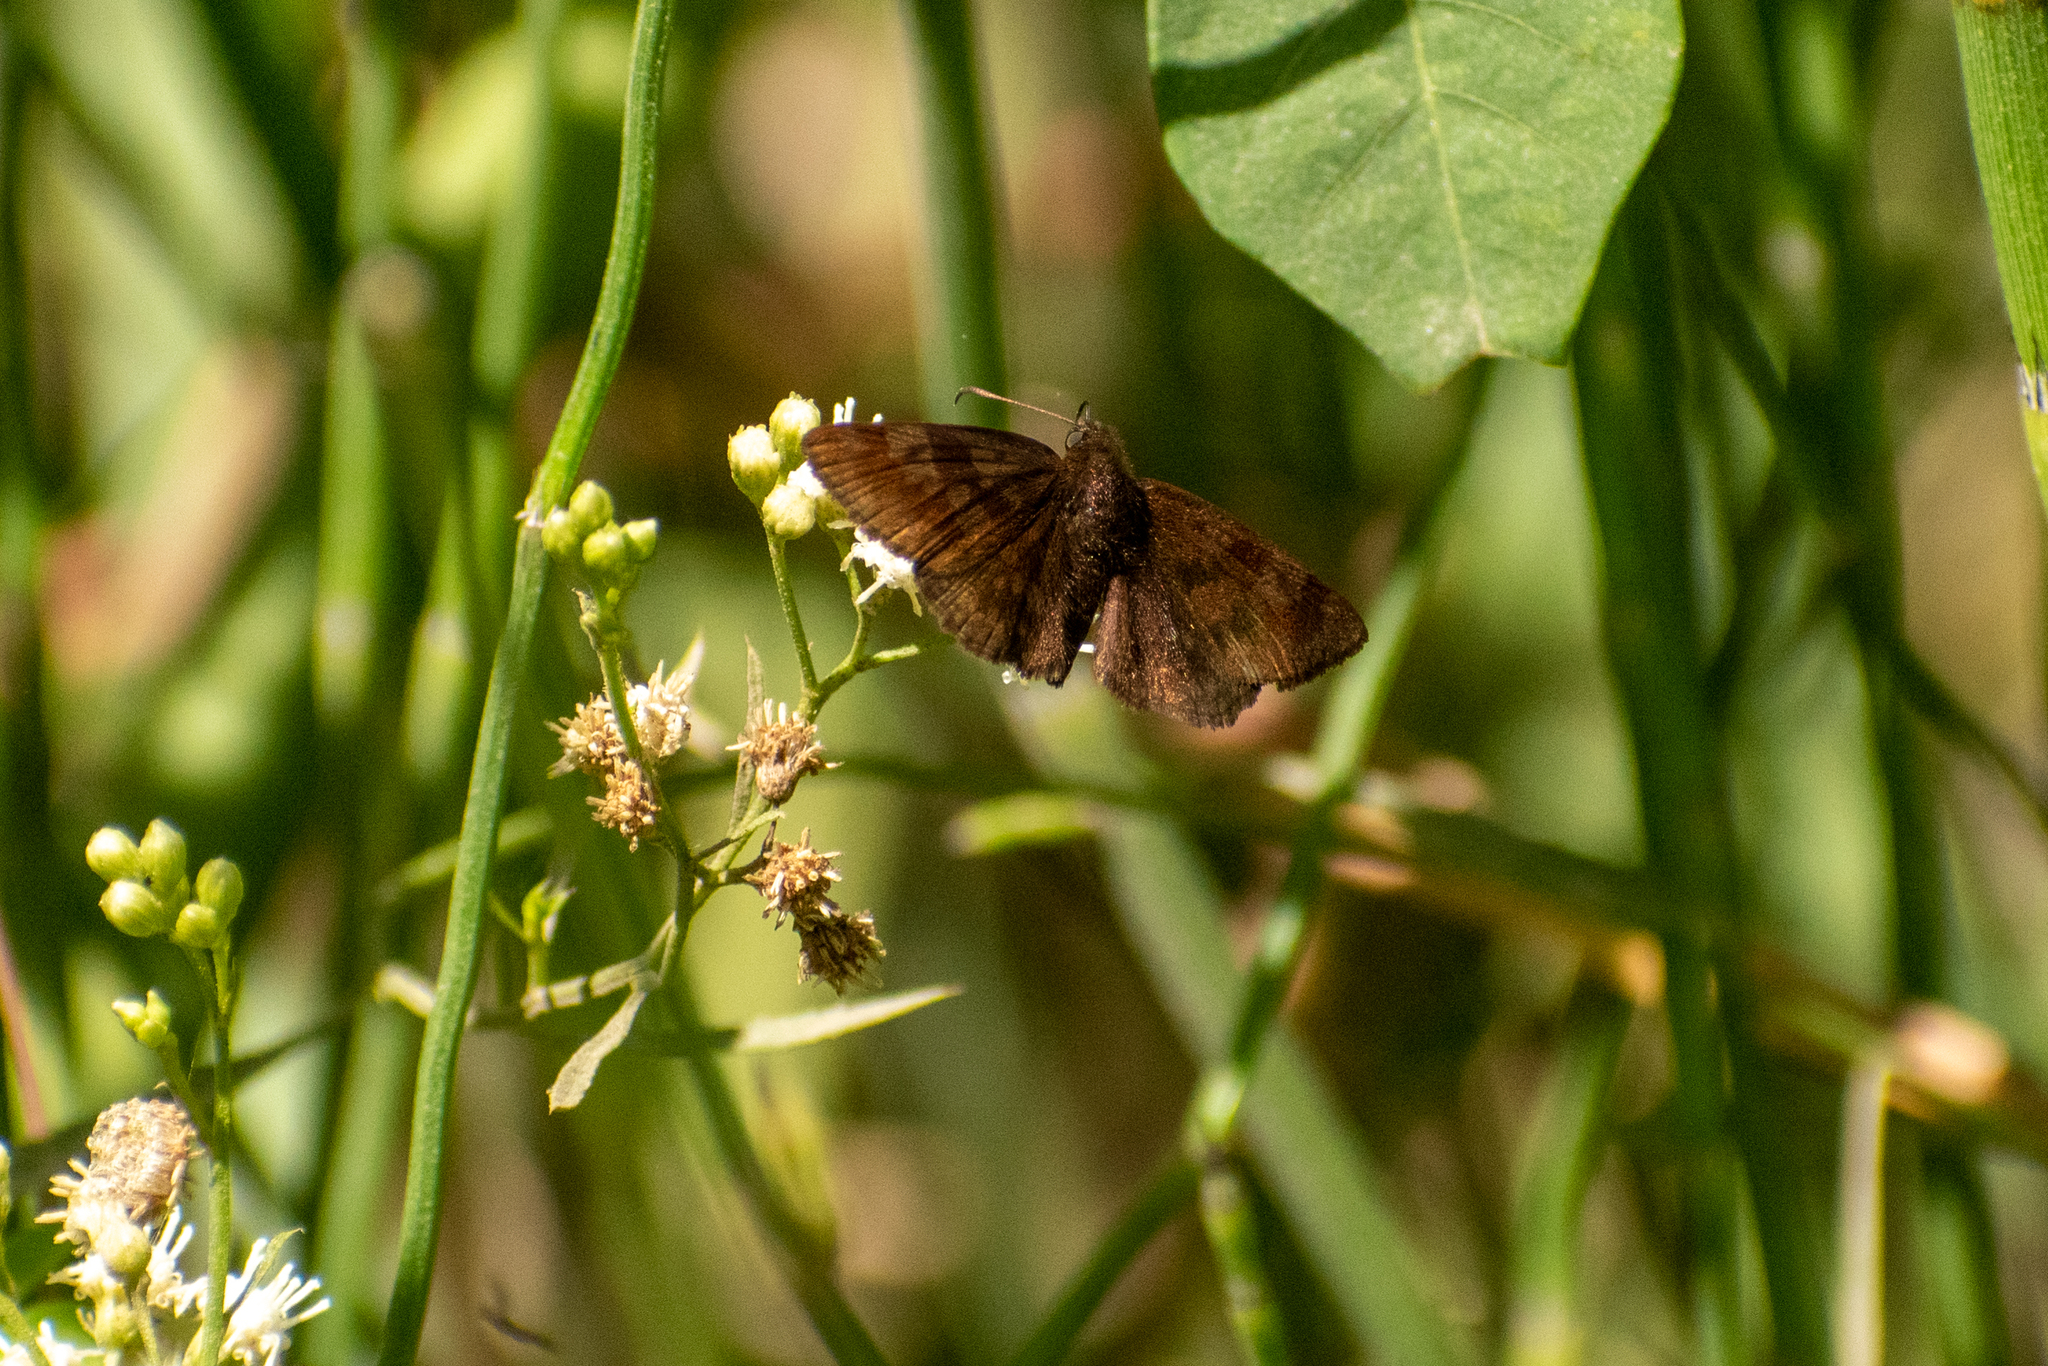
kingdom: Animalia
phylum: Arthropoda
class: Insecta
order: Lepidoptera
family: Hesperiidae
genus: Viola
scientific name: Viola minor
